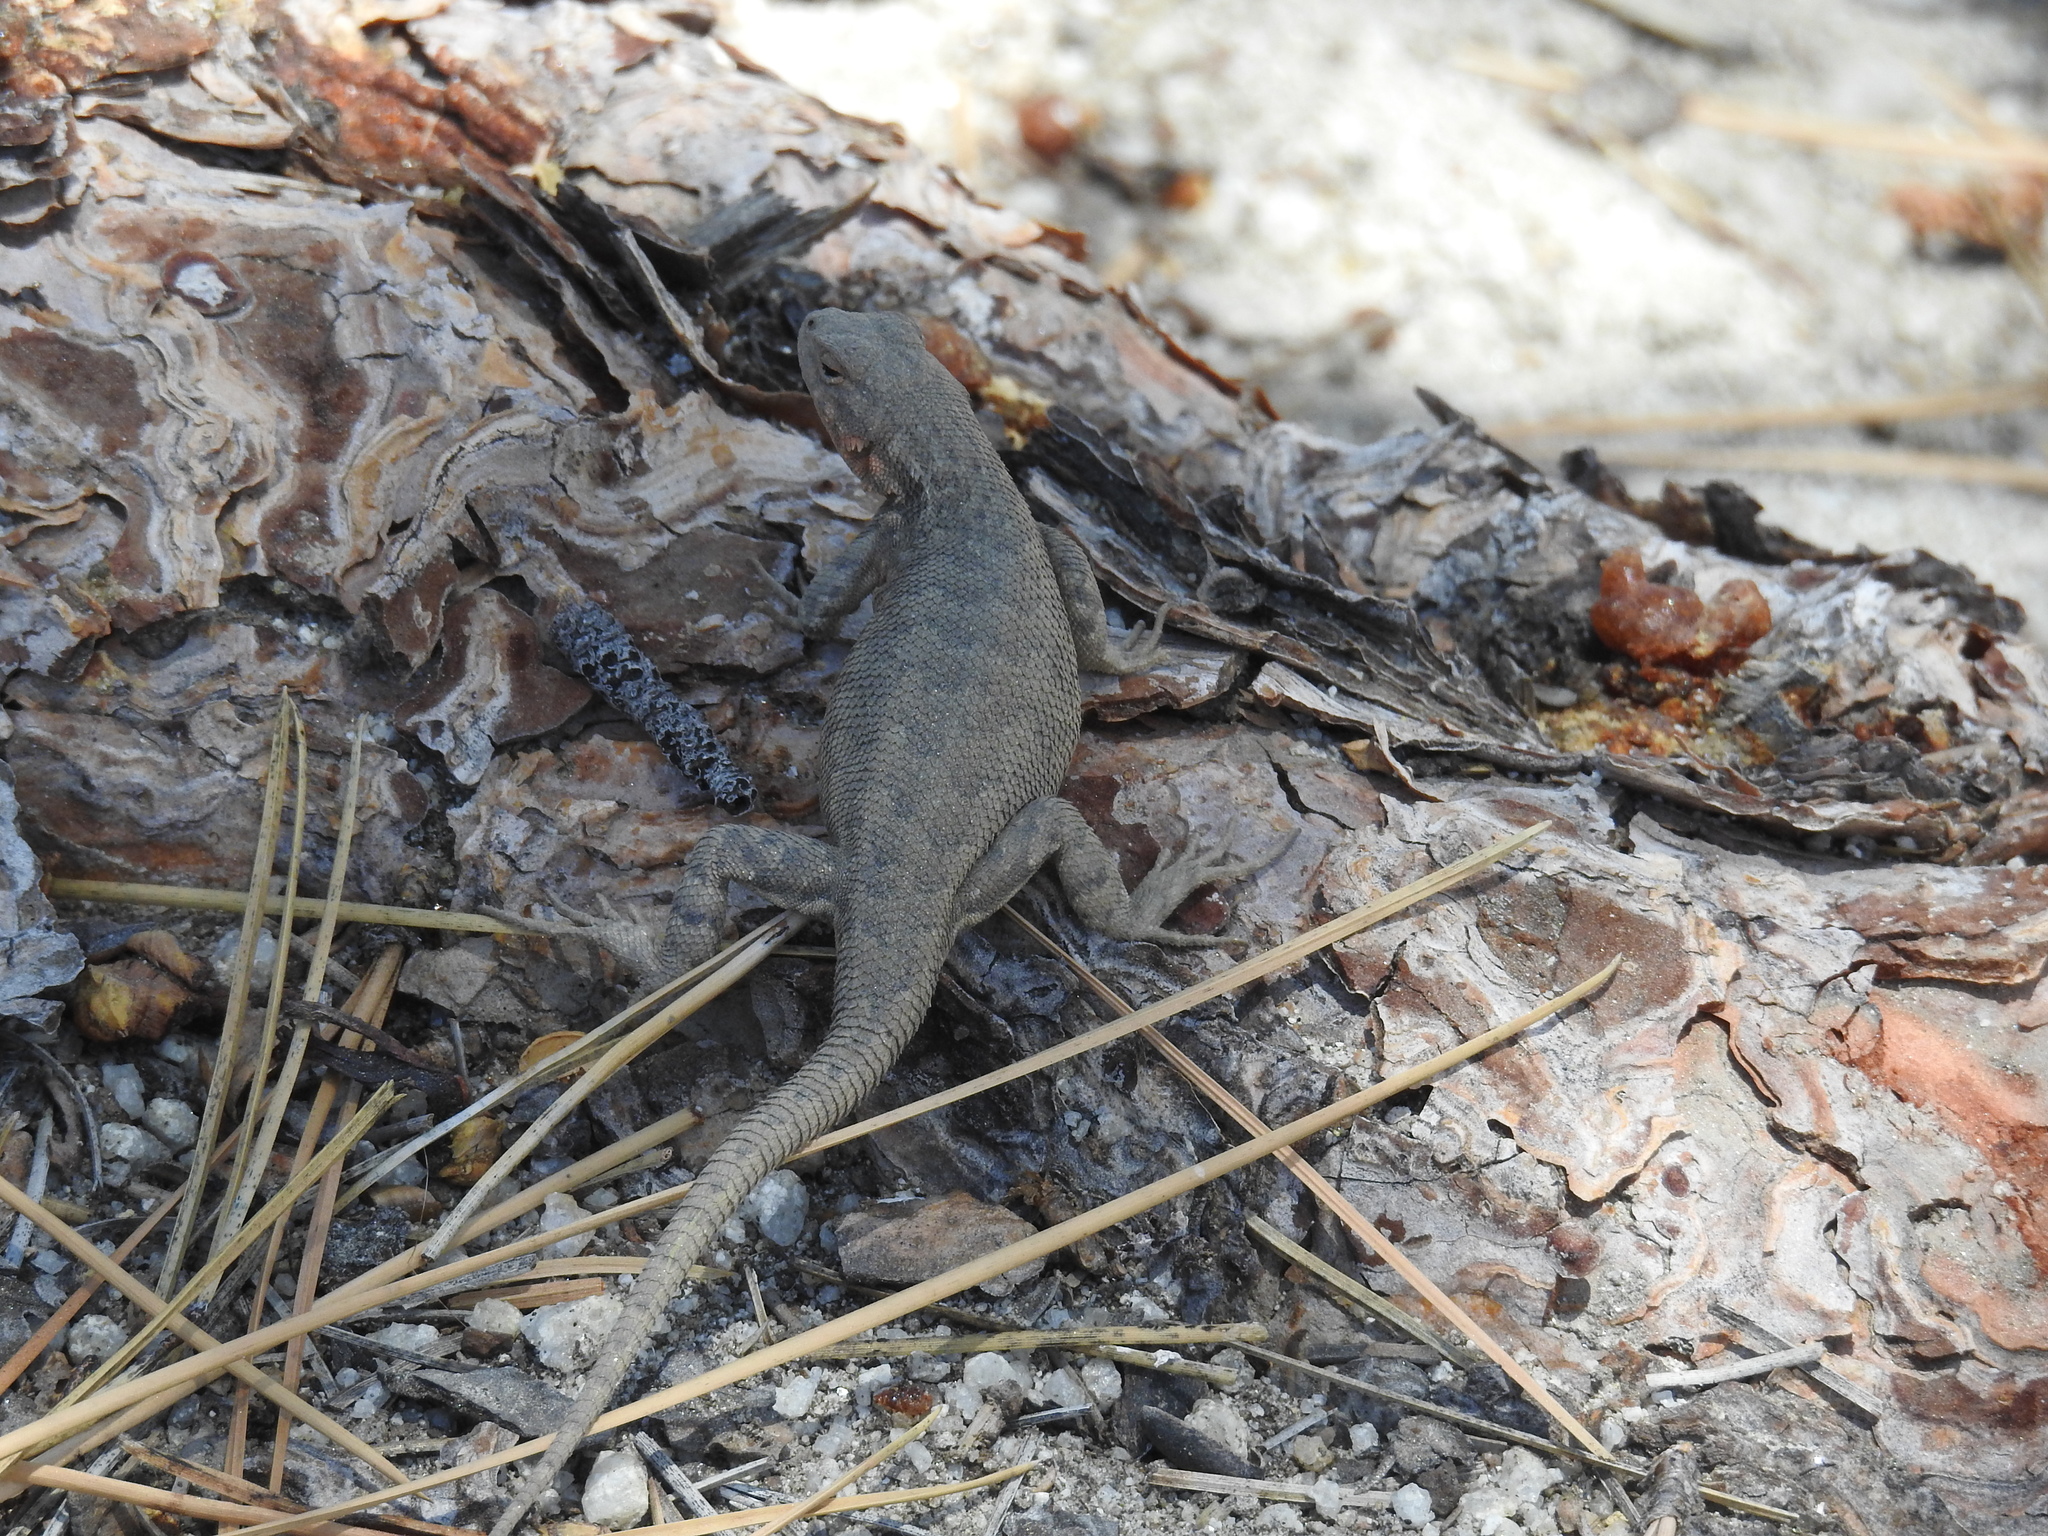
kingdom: Animalia
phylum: Chordata
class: Squamata
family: Phrynosomatidae
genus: Sceloporus
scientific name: Sceloporus graciosus
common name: Sagebrush lizard
